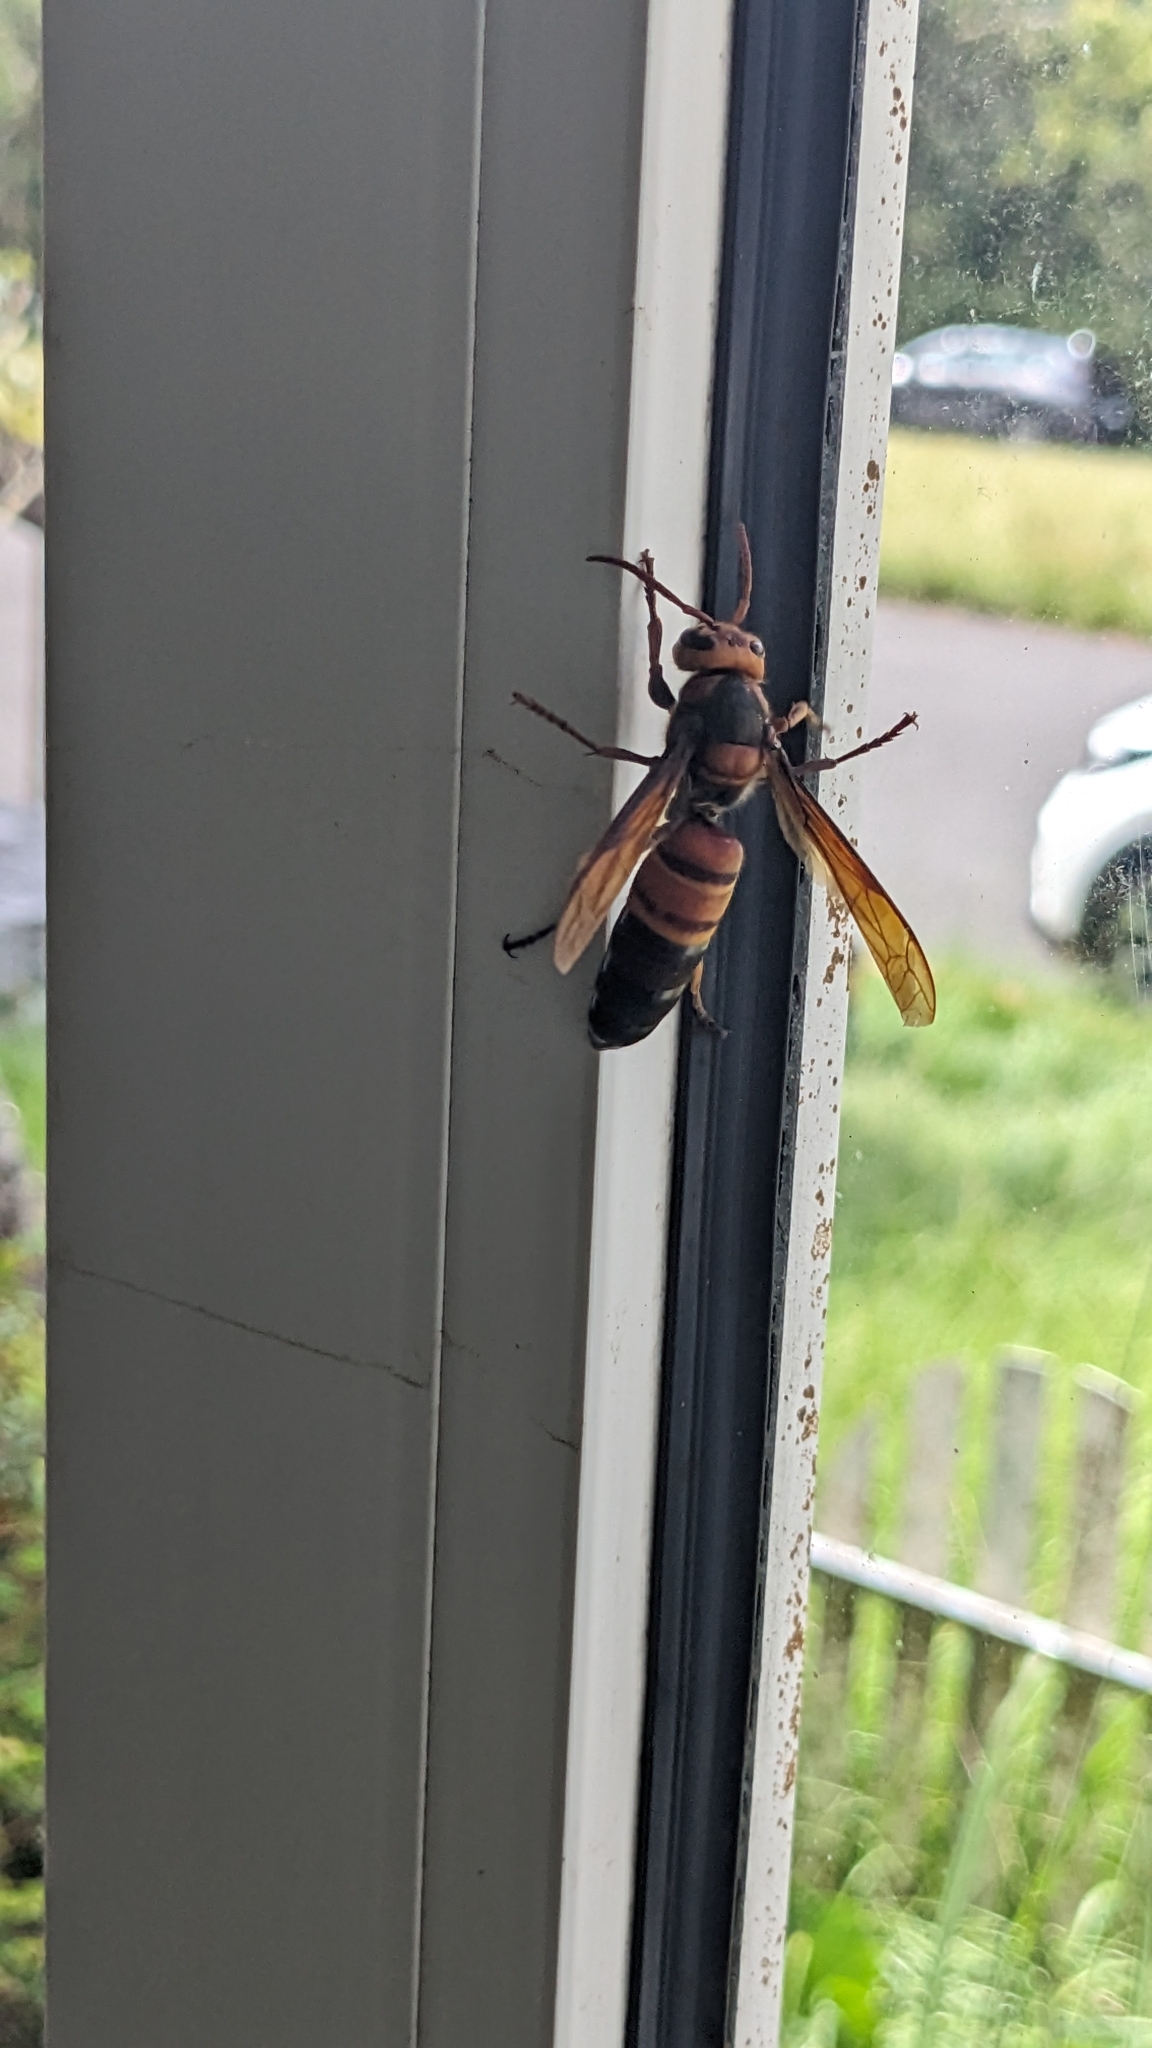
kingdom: Animalia
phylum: Arthropoda
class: Insecta
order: Hymenoptera
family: Vespidae
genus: Vespa
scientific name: Vespa ducalis
